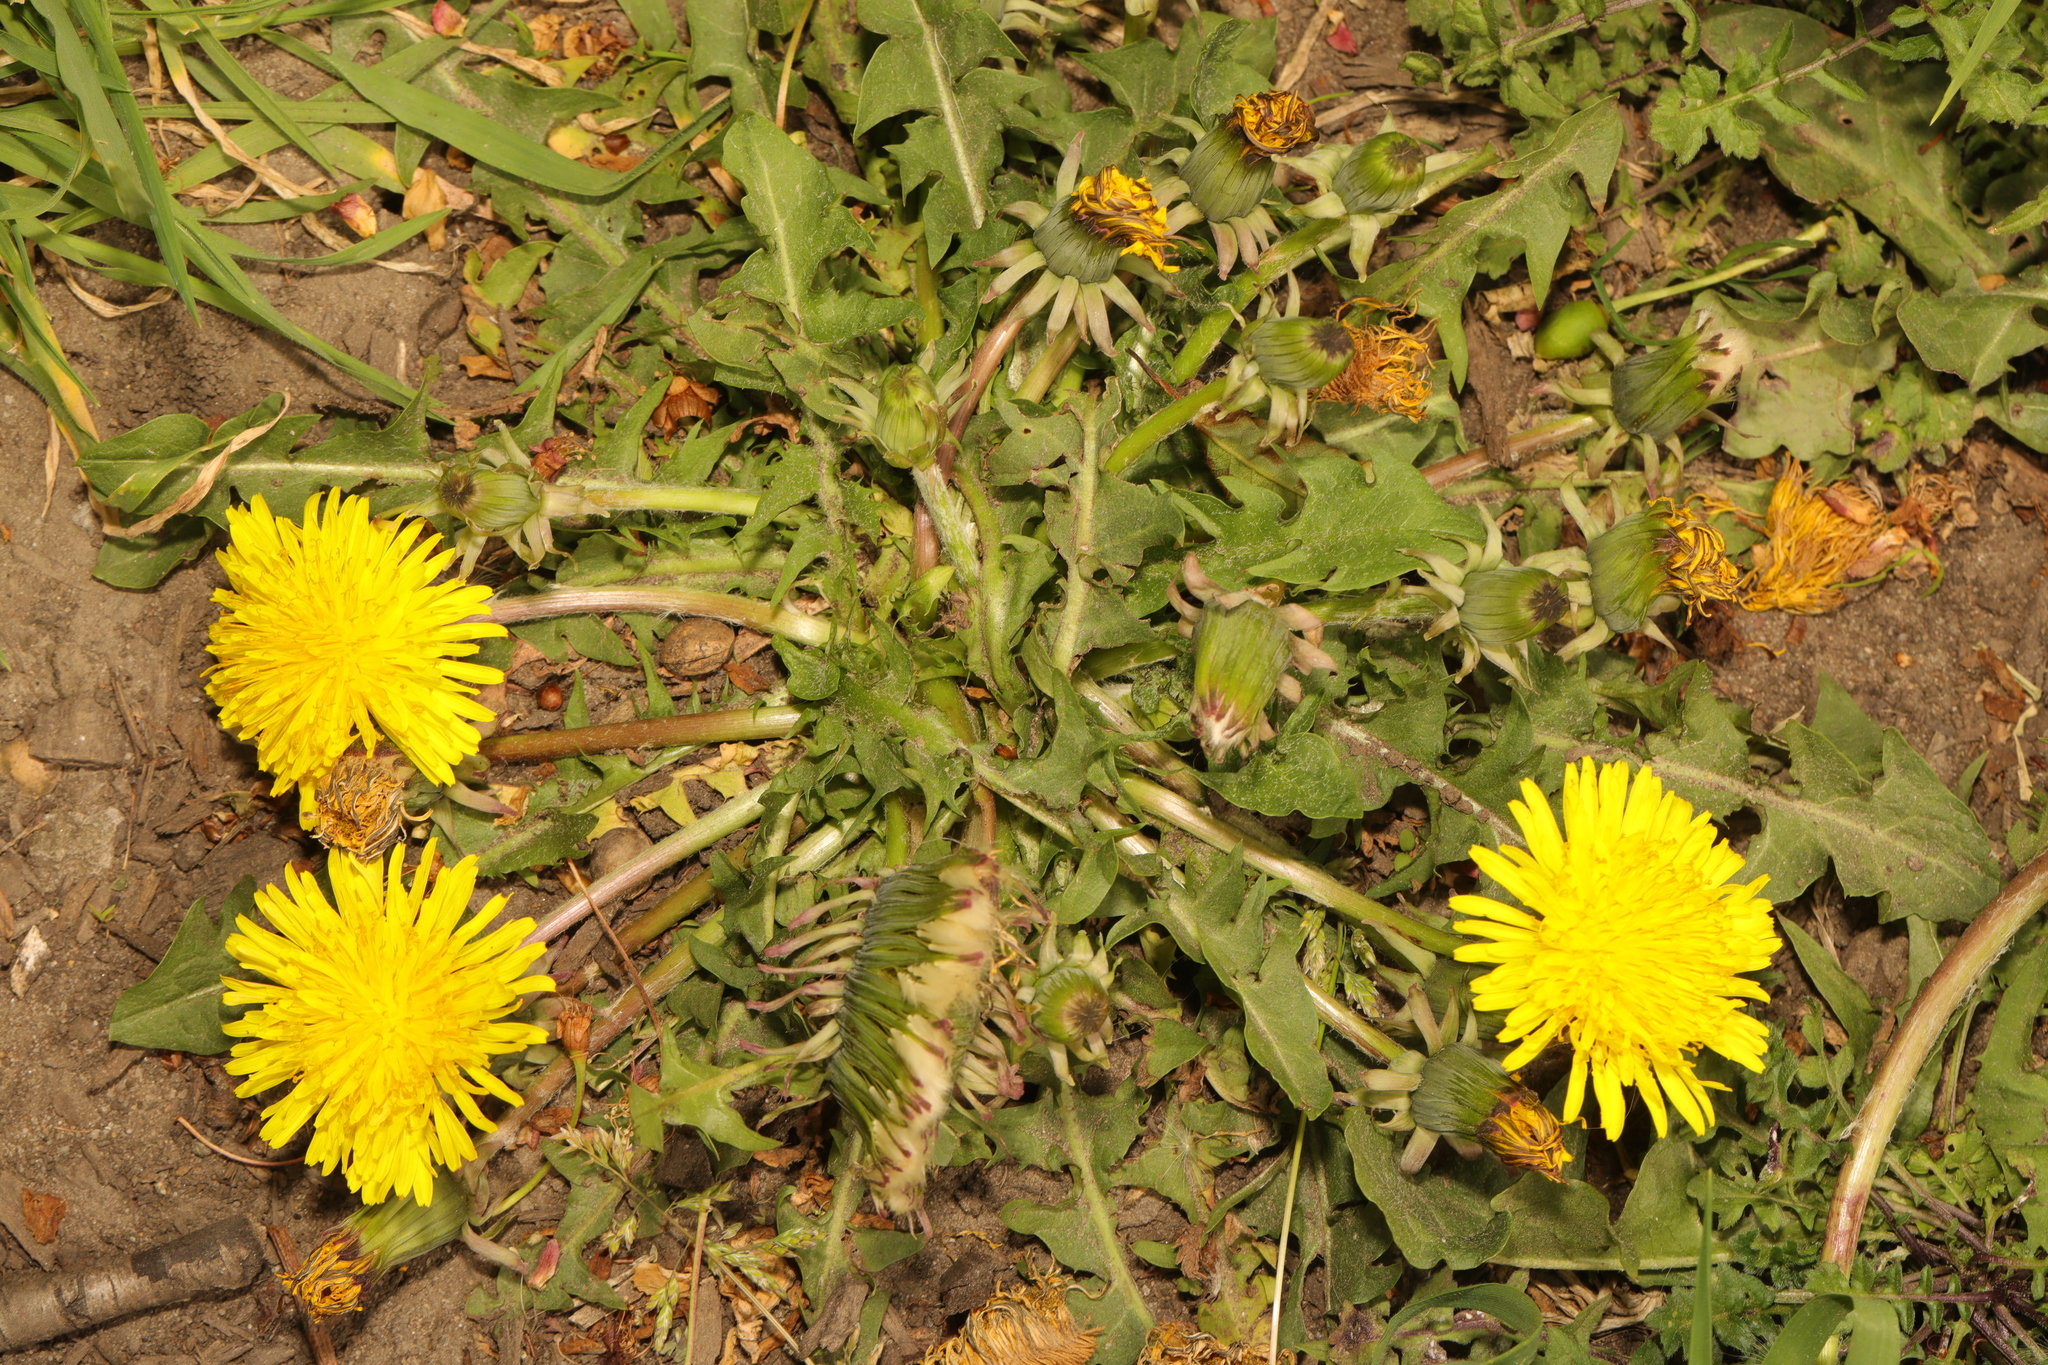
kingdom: Plantae
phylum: Tracheophyta
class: Magnoliopsida
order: Asterales
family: Asteraceae
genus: Taraxacum
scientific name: Taraxacum officinale
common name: Common dandelion
